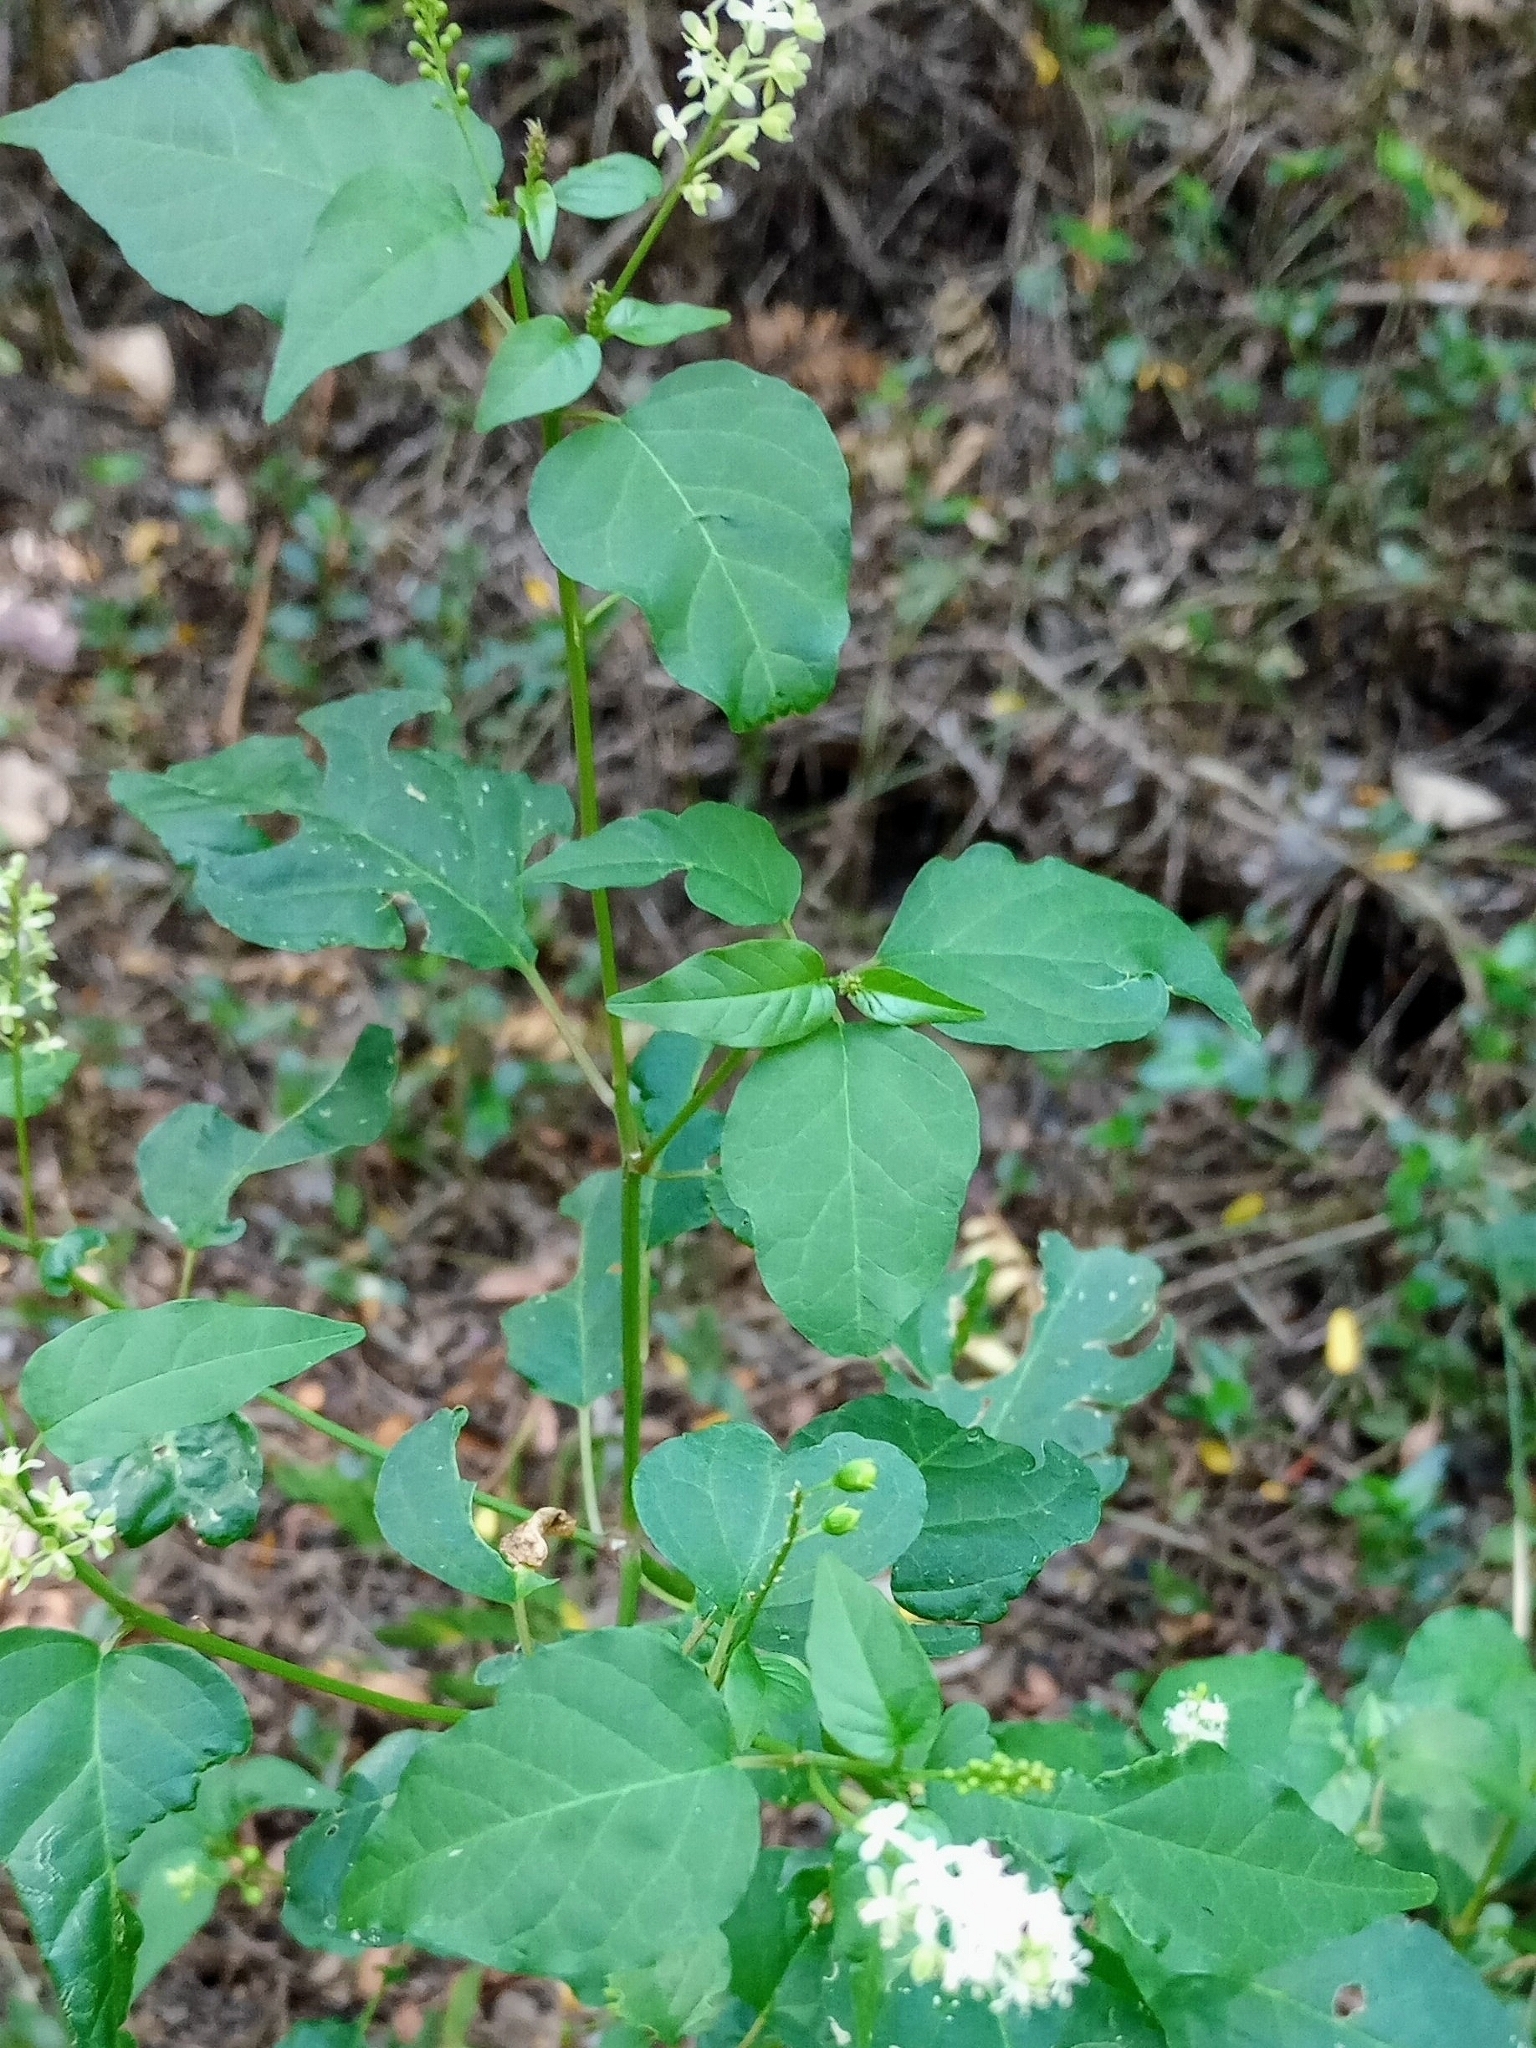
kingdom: Plantae
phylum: Tracheophyta
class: Magnoliopsida
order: Caryophyllales
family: Phytolaccaceae
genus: Rivina
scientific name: Rivina humilis
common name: Rougeplant
